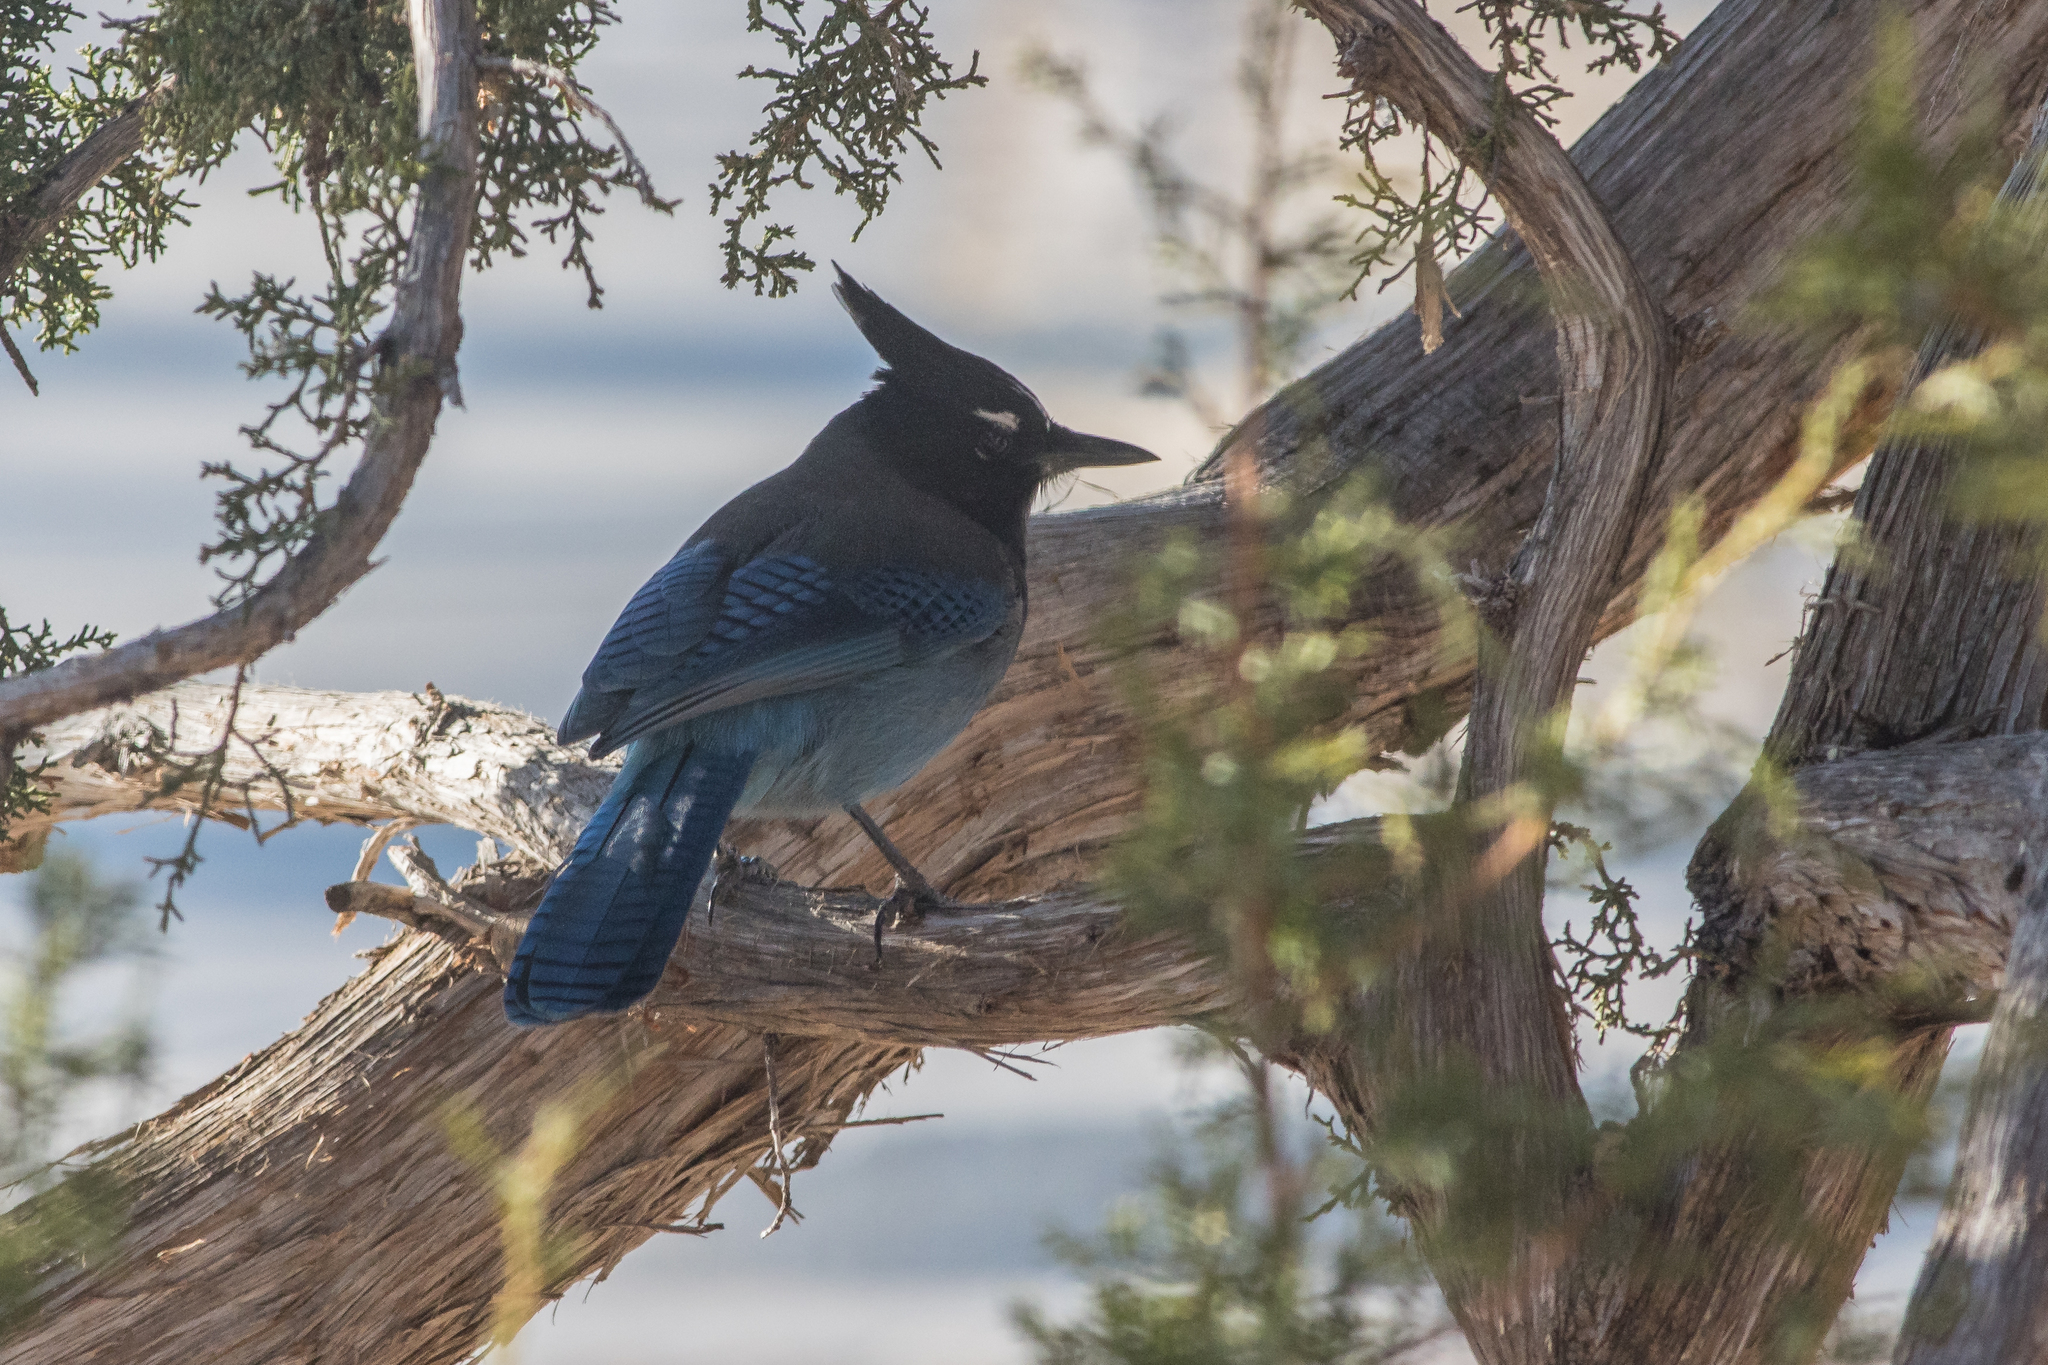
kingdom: Animalia
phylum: Chordata
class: Aves
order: Passeriformes
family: Corvidae
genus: Cyanocitta
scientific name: Cyanocitta stelleri
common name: Steller's jay
